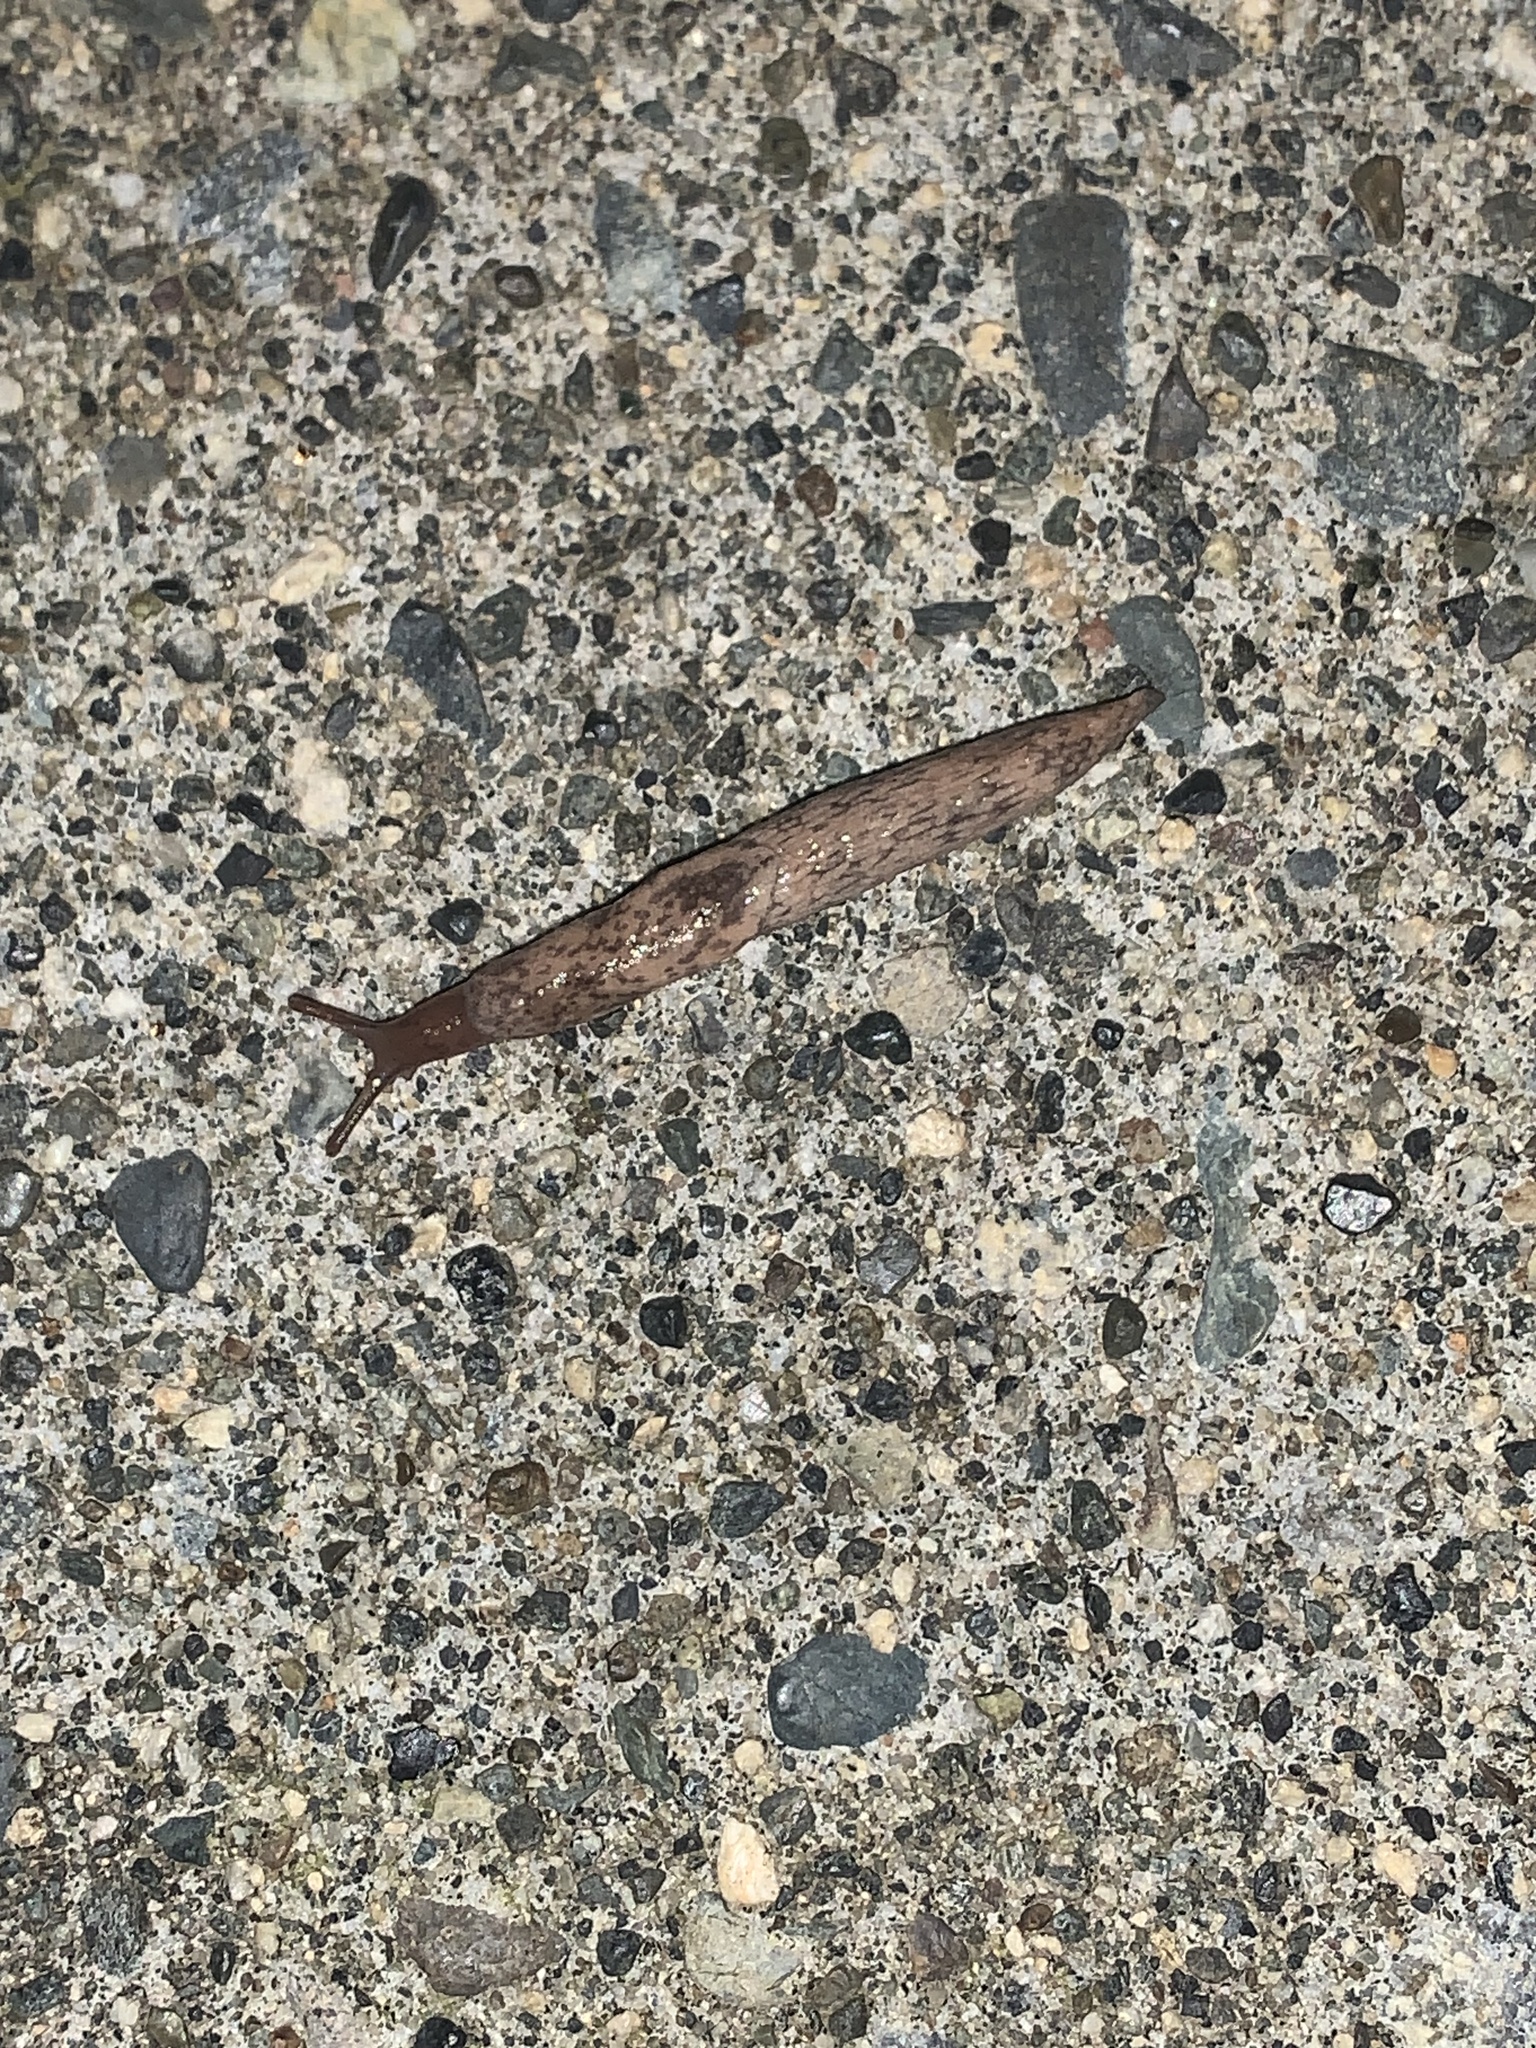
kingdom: Animalia
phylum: Mollusca
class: Gastropoda
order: Stylommatophora
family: Agriolimacidae
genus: Deroceras
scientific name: Deroceras reticulatum
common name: Gray field slug
